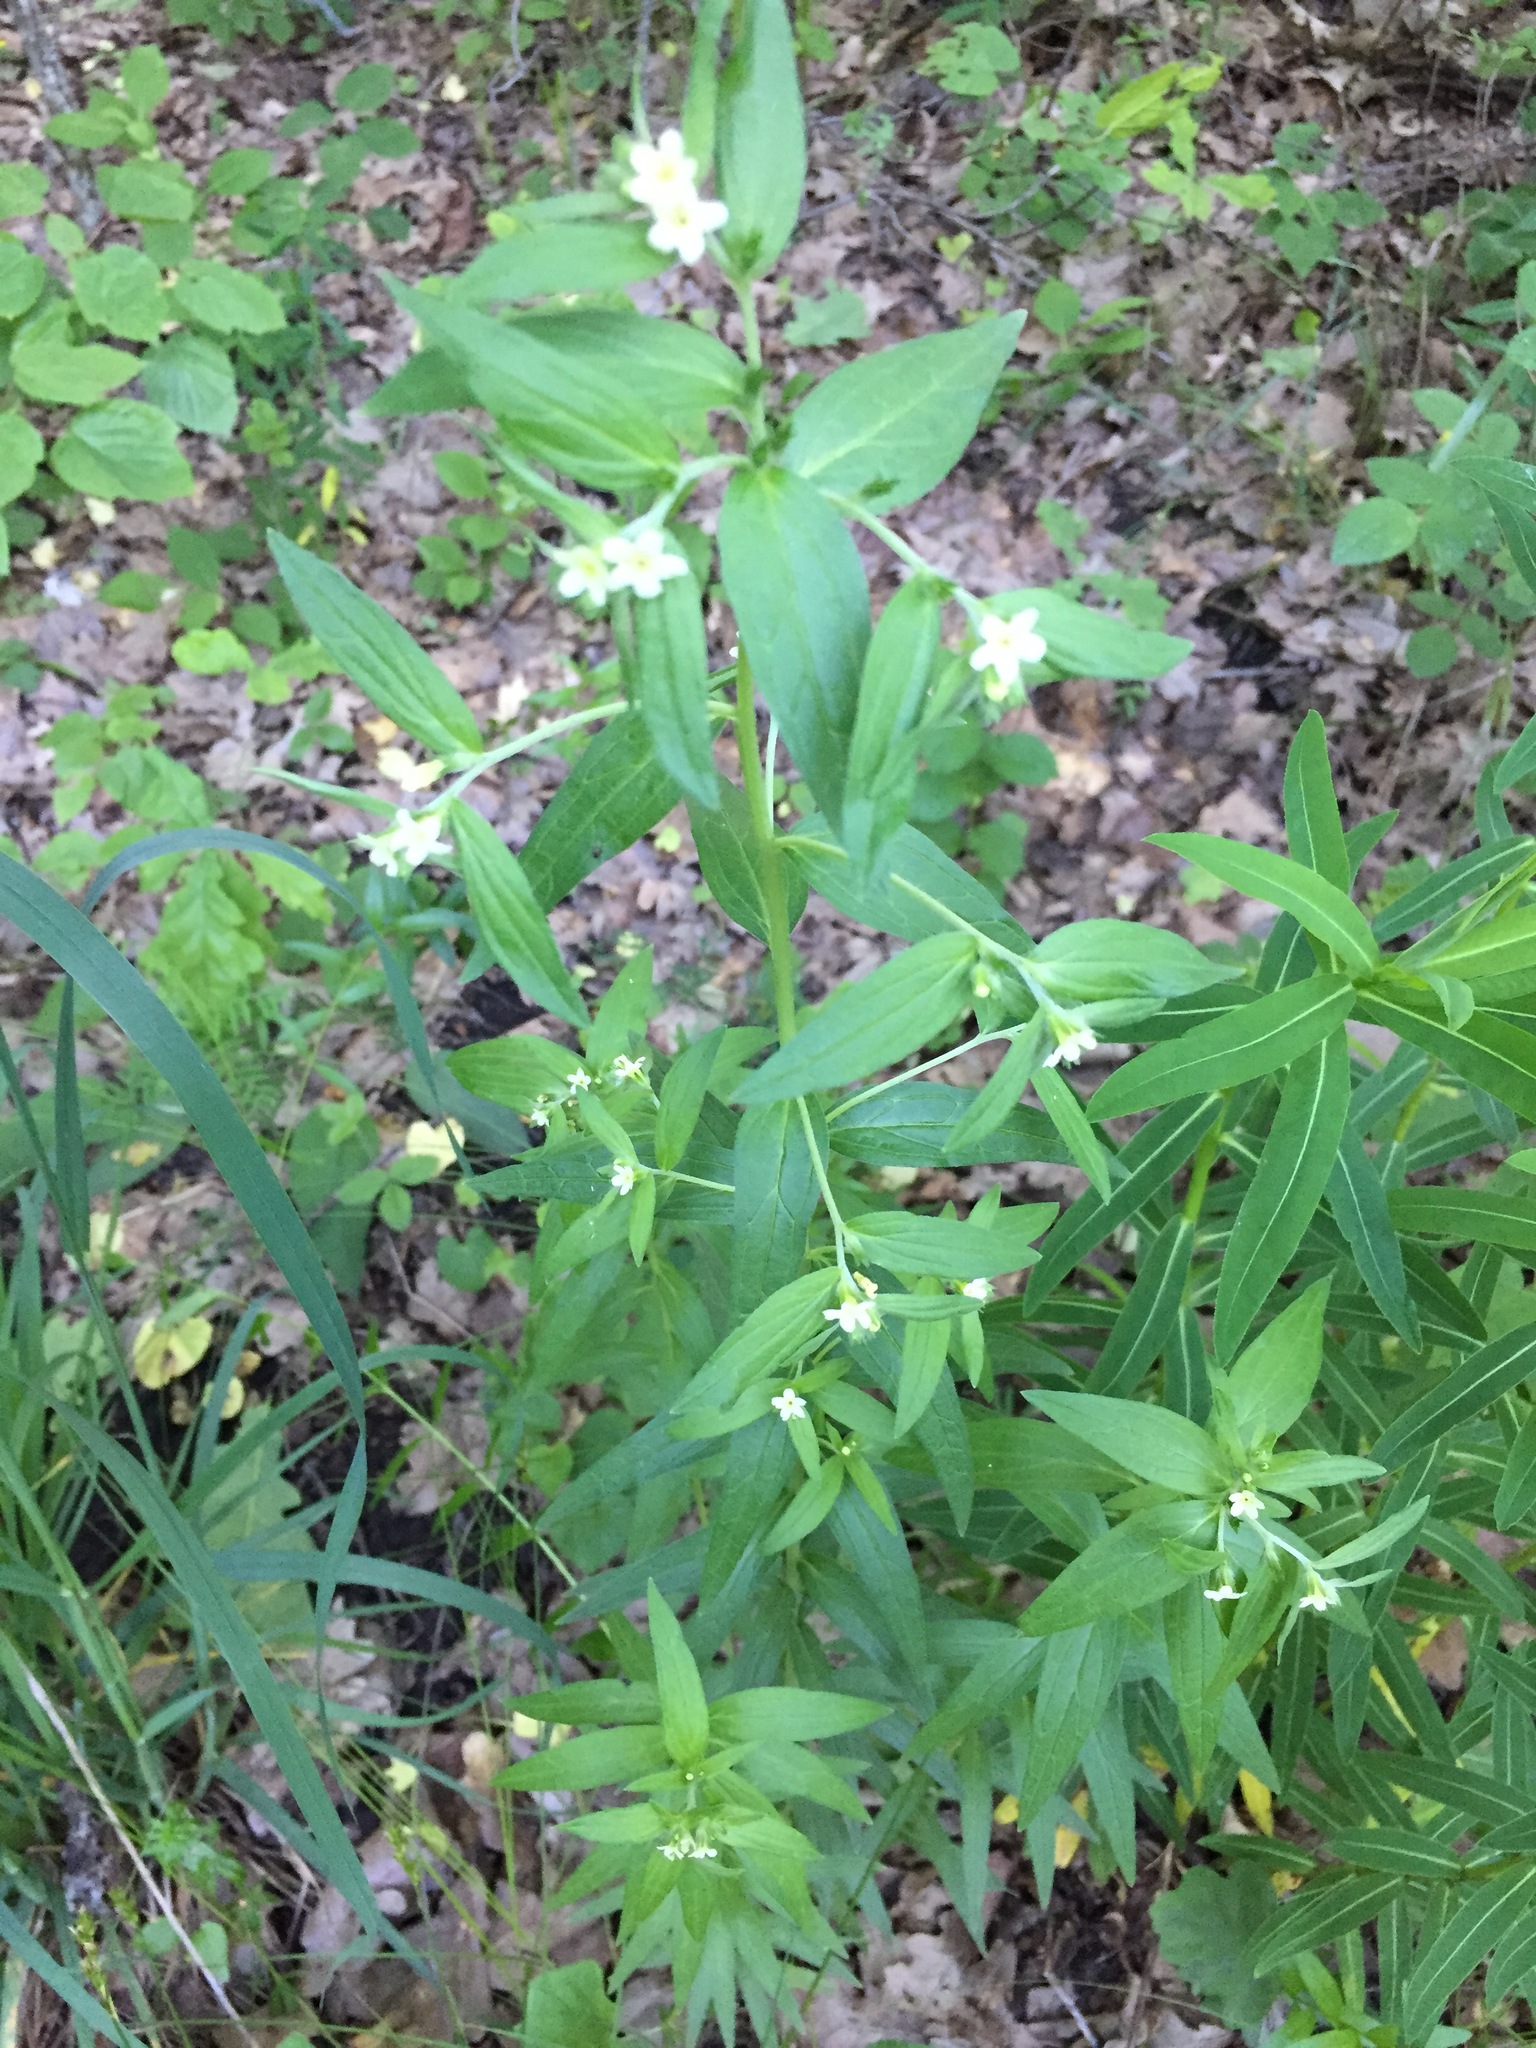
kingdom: Plantae
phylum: Tracheophyta
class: Magnoliopsida
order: Boraginales
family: Boraginaceae
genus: Lithospermum
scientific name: Lithospermum officinale
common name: Common gromwell
